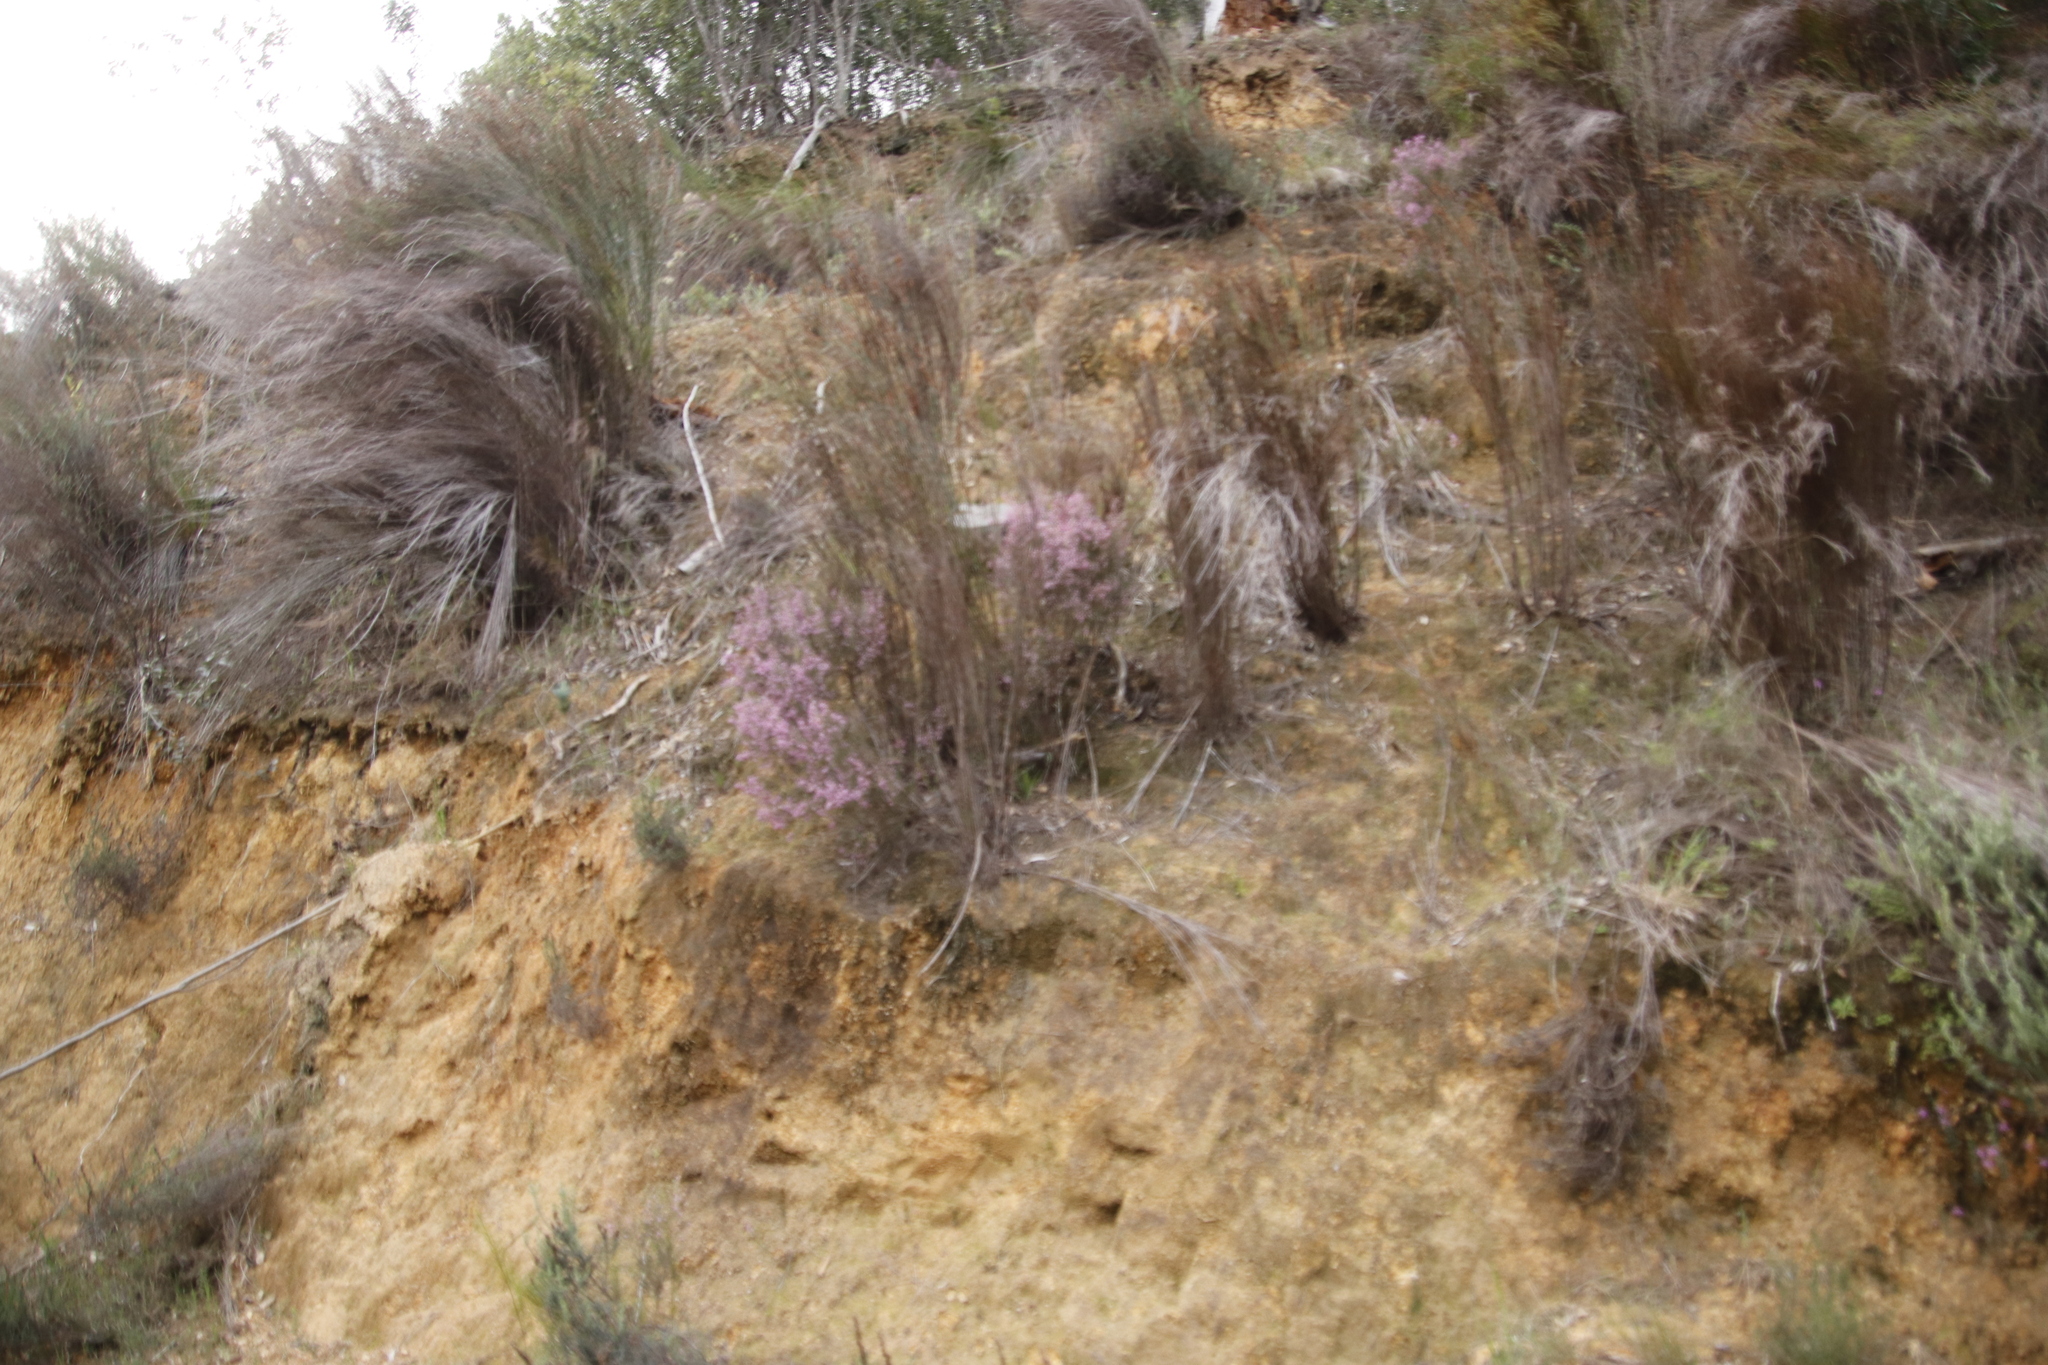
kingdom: Plantae
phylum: Tracheophyta
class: Magnoliopsida
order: Ericales
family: Ericaceae
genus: Erica
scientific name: Erica hirtiflora
